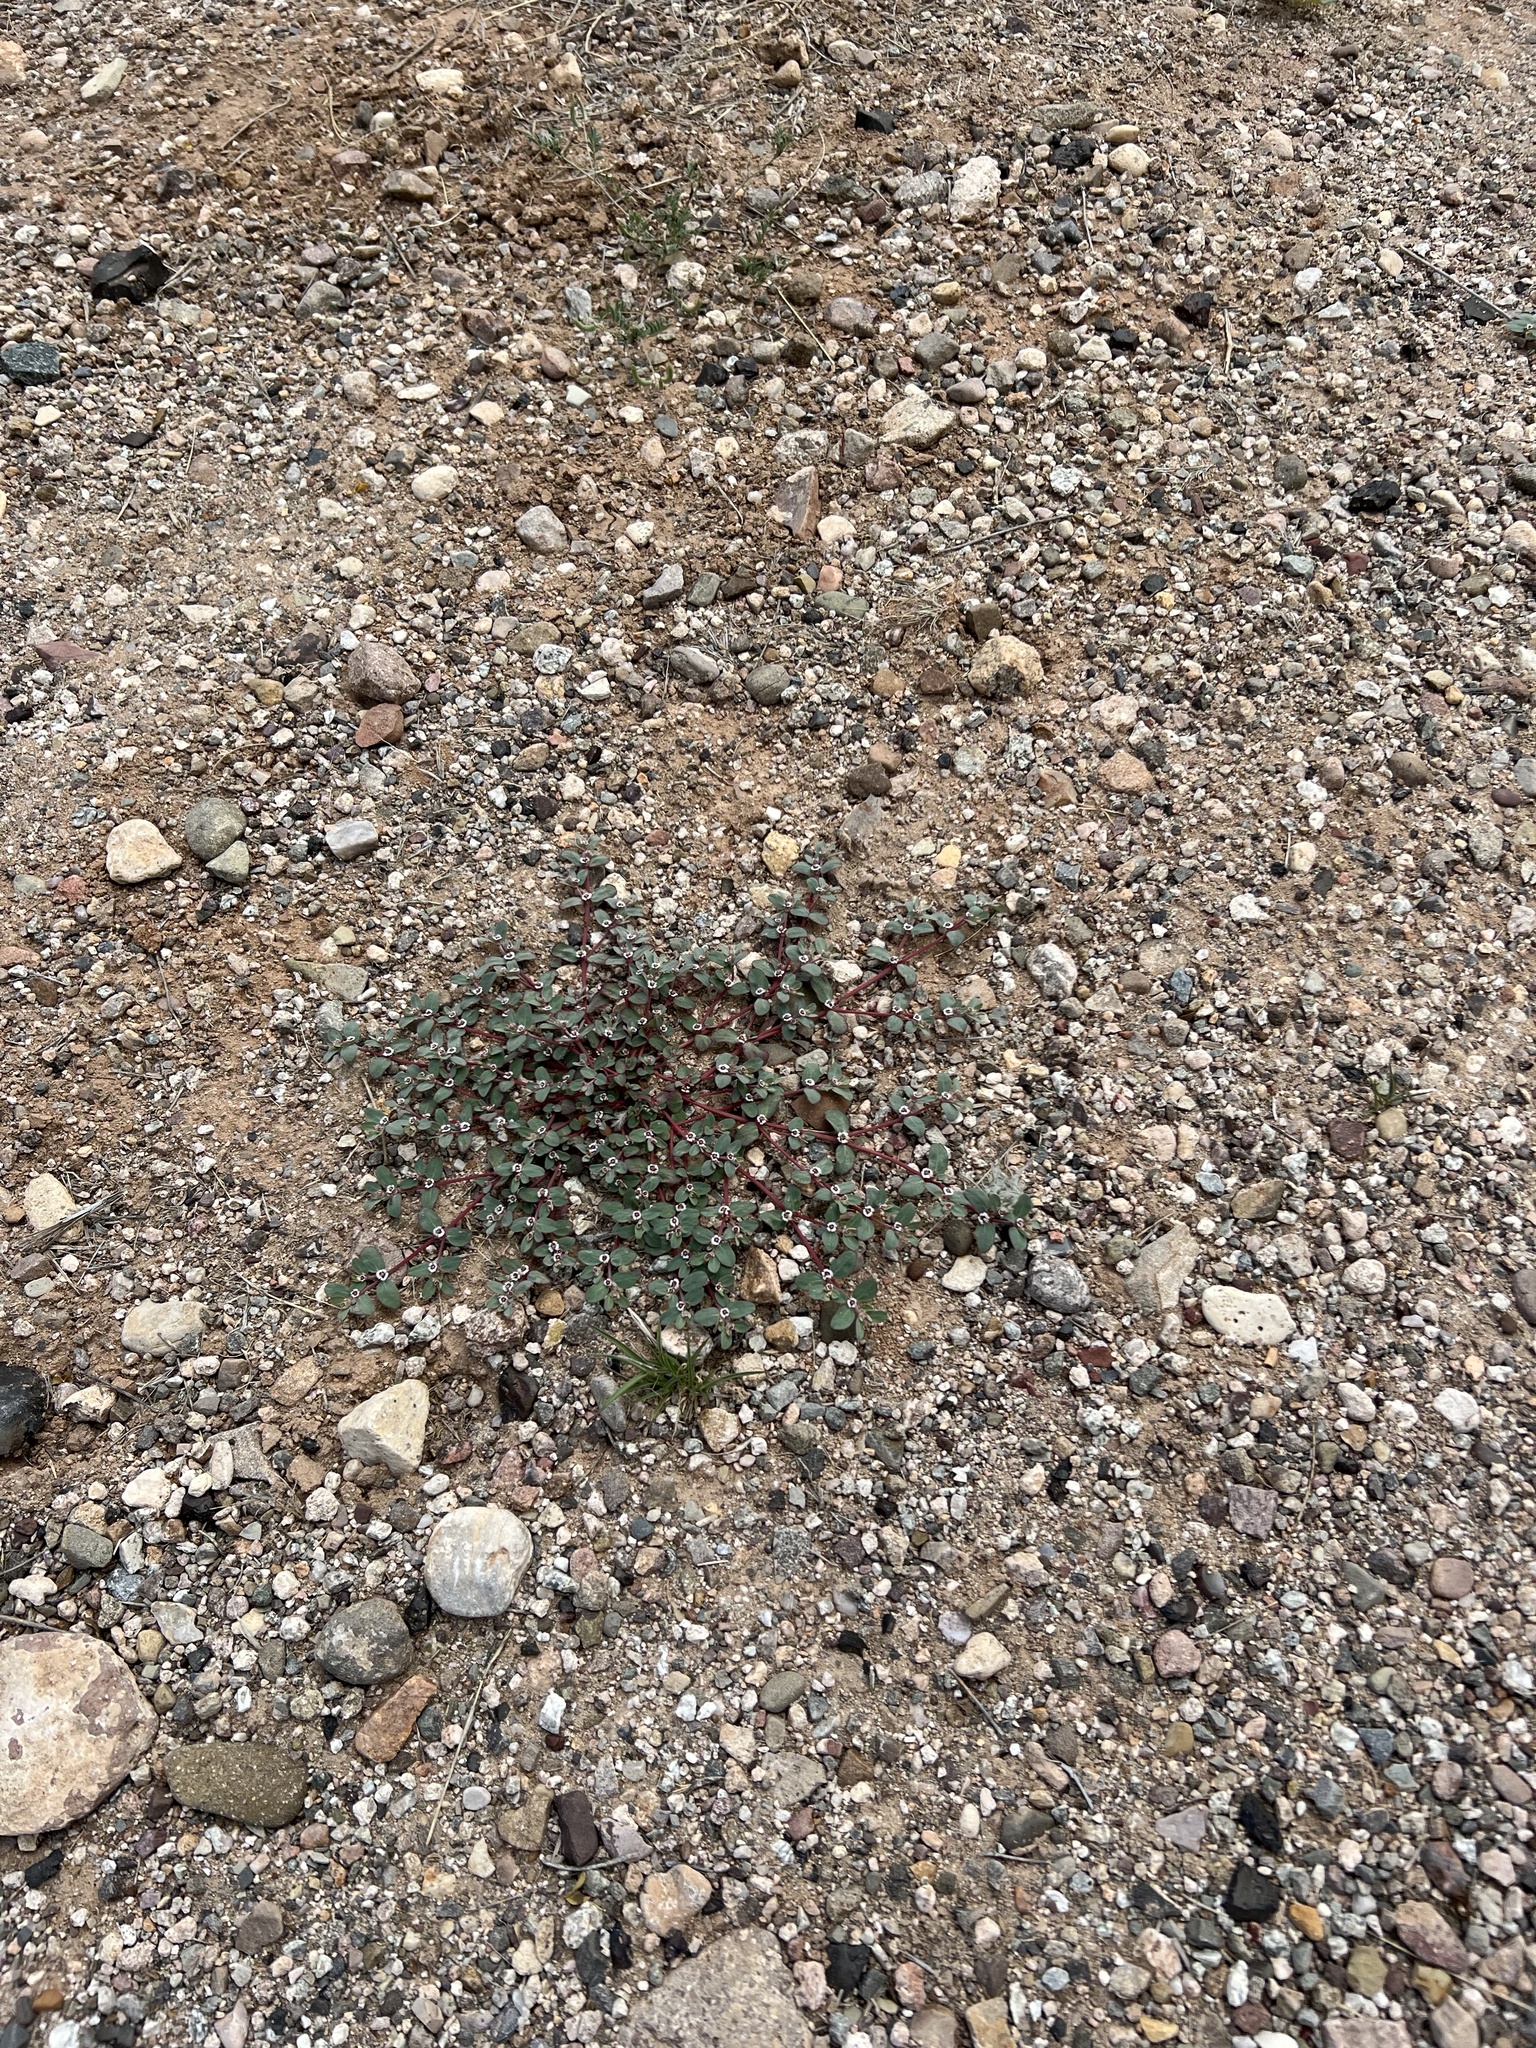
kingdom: Plantae
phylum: Tracheophyta
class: Magnoliopsida
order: Malpighiales
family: Euphorbiaceae
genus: Euphorbia
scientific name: Euphorbia pediculifera
